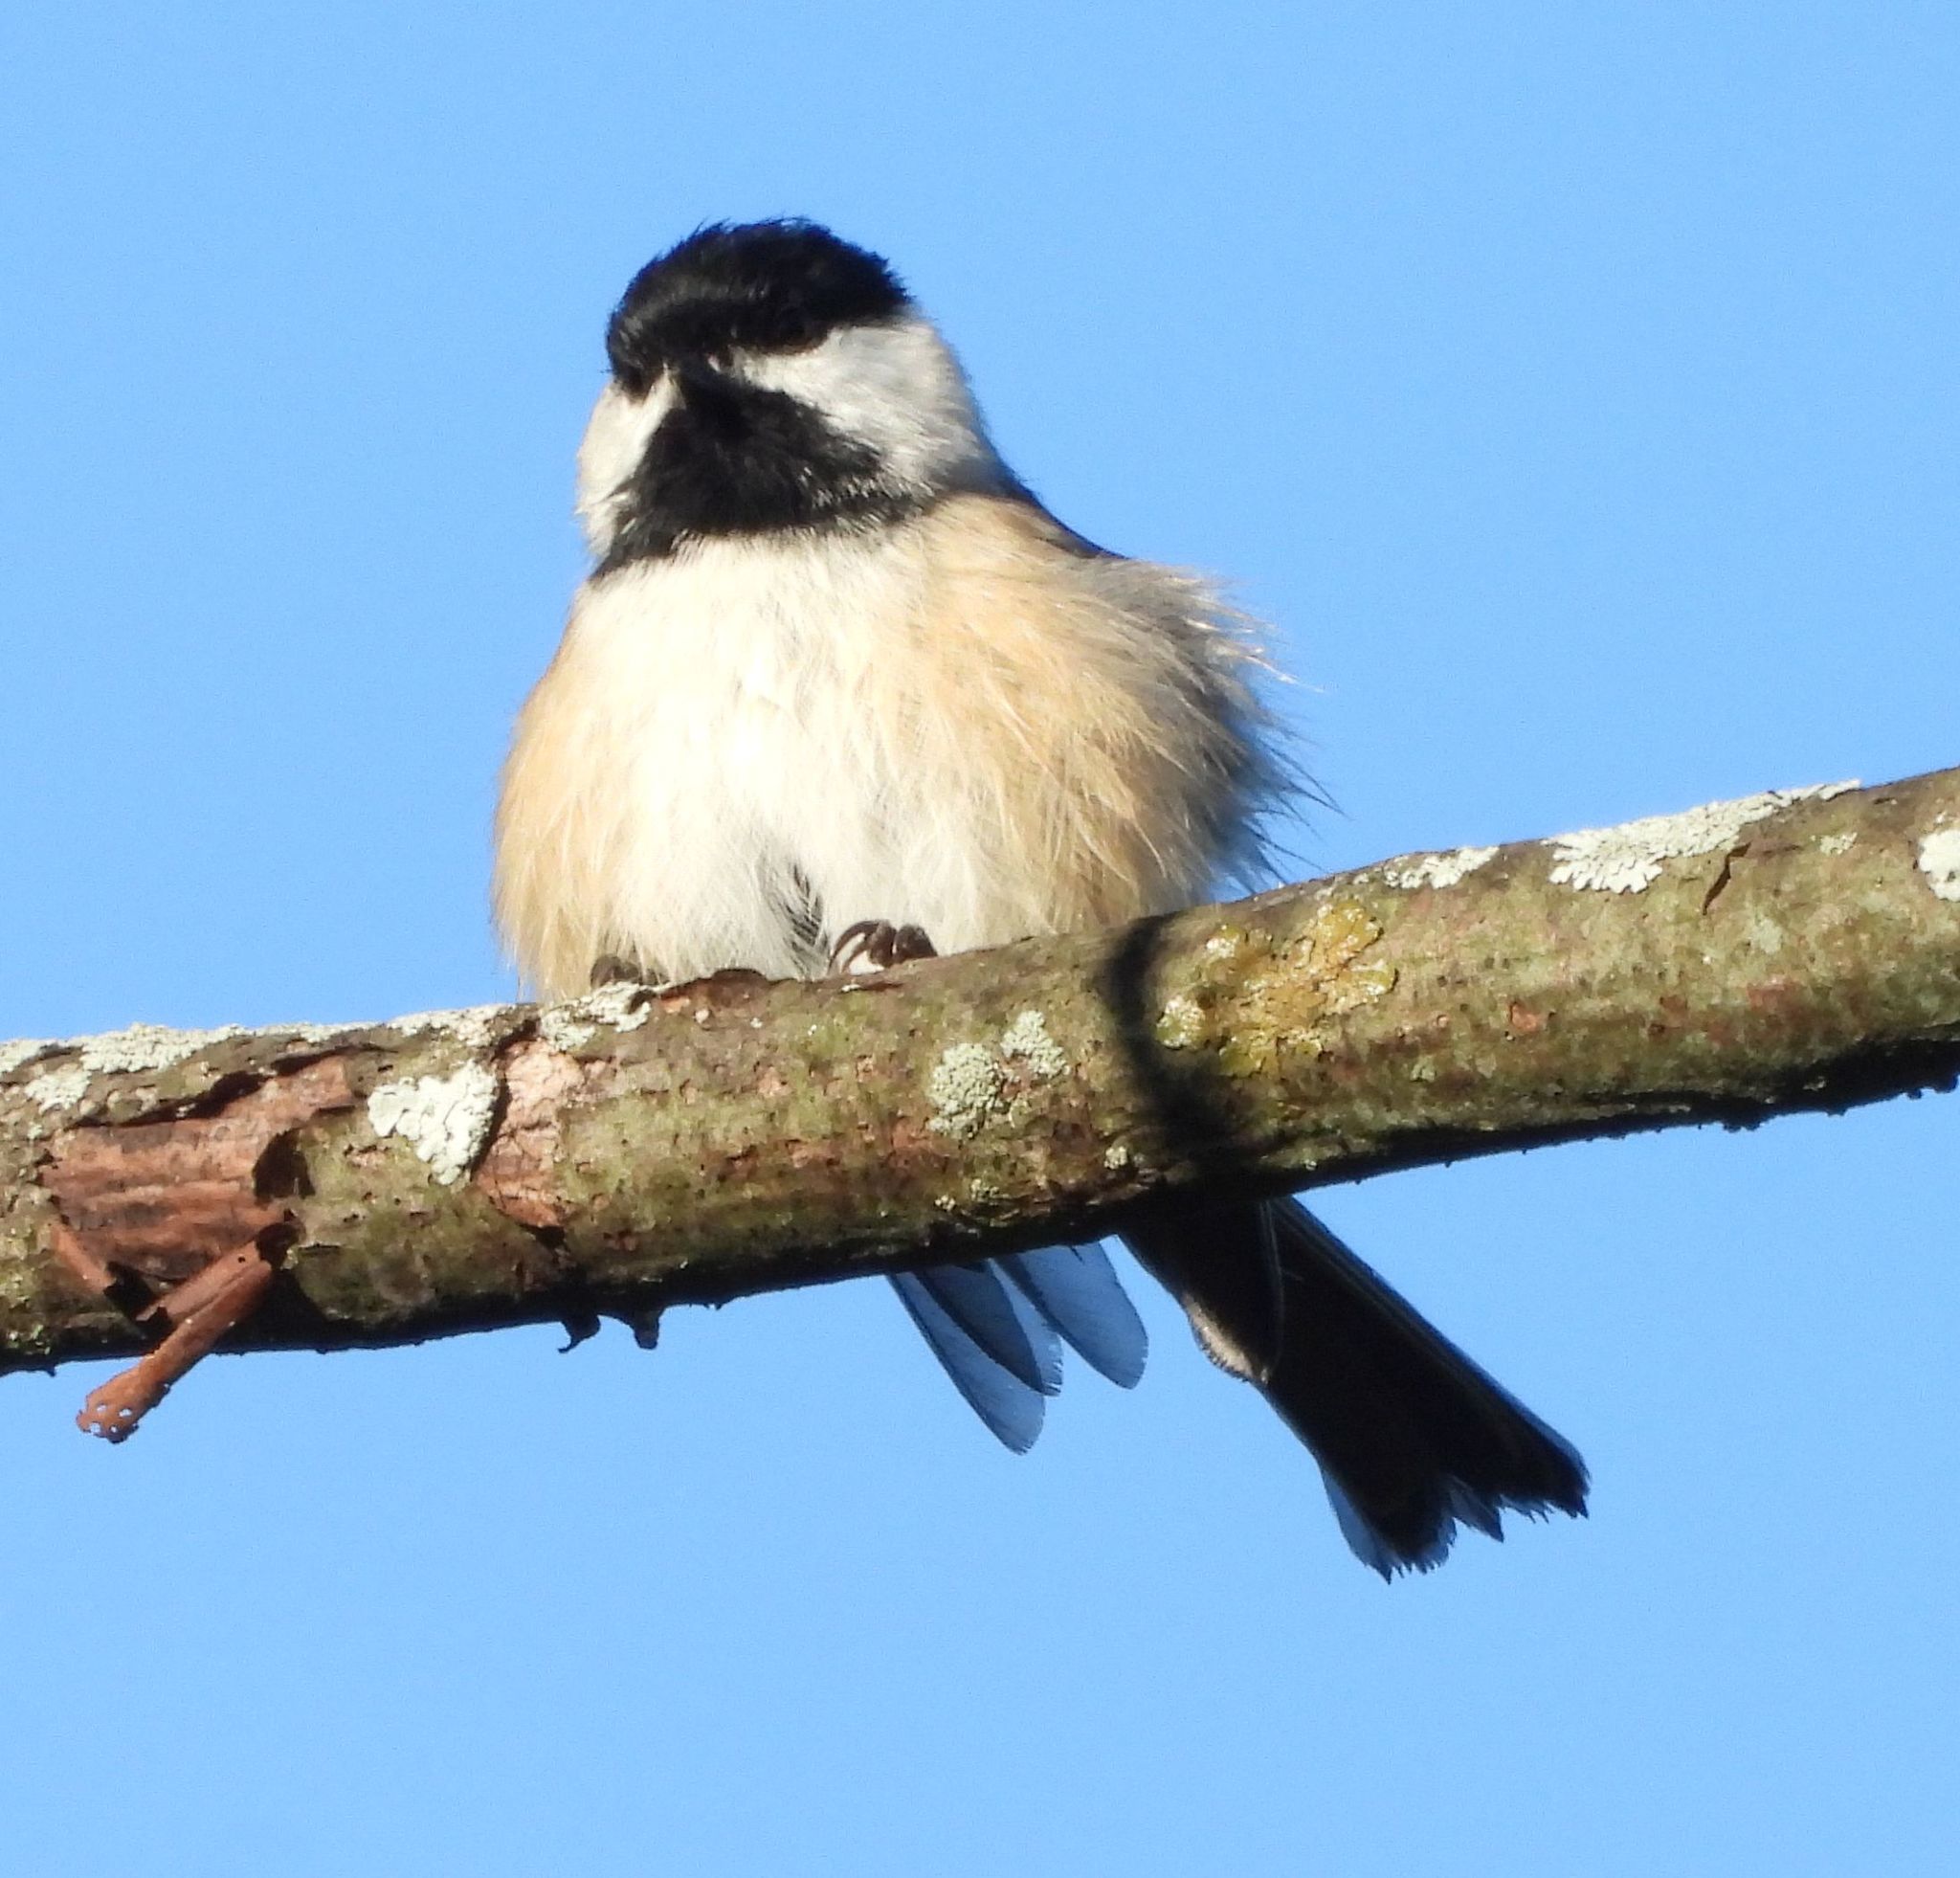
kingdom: Animalia
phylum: Chordata
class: Aves
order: Passeriformes
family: Paridae
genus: Poecile
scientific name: Poecile atricapillus
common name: Black-capped chickadee
